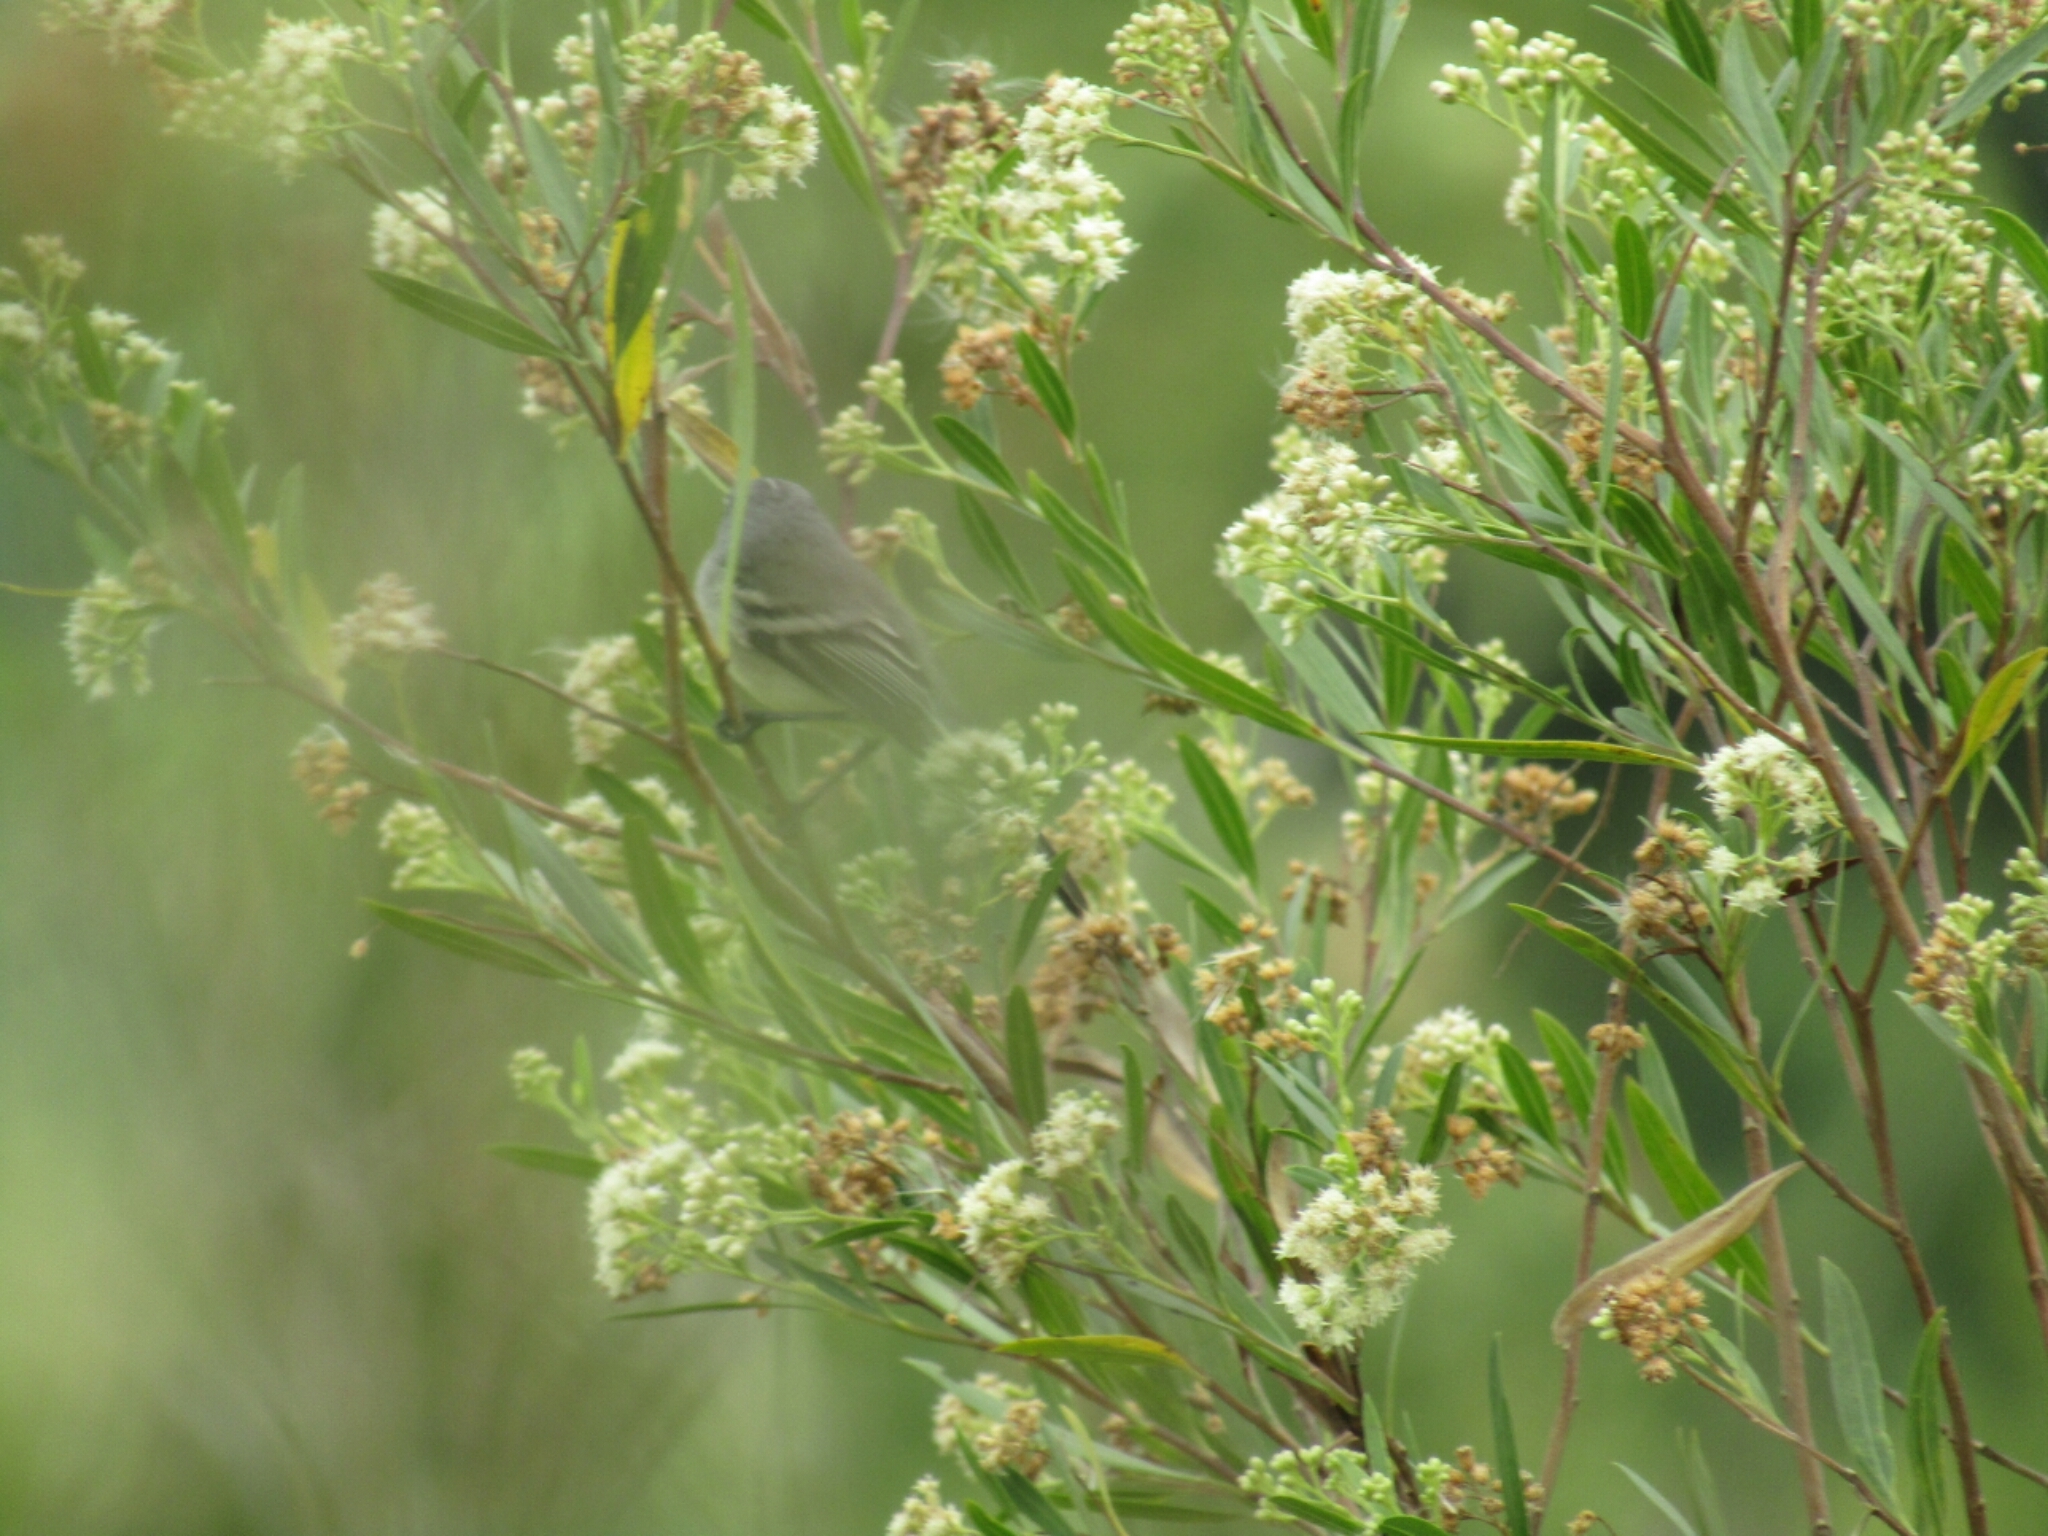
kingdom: Animalia
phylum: Chordata
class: Aves
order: Passeriformes
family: Tyrannidae
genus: Serpophaga
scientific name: Serpophaga subcristata
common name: White-crested tyrannulet
